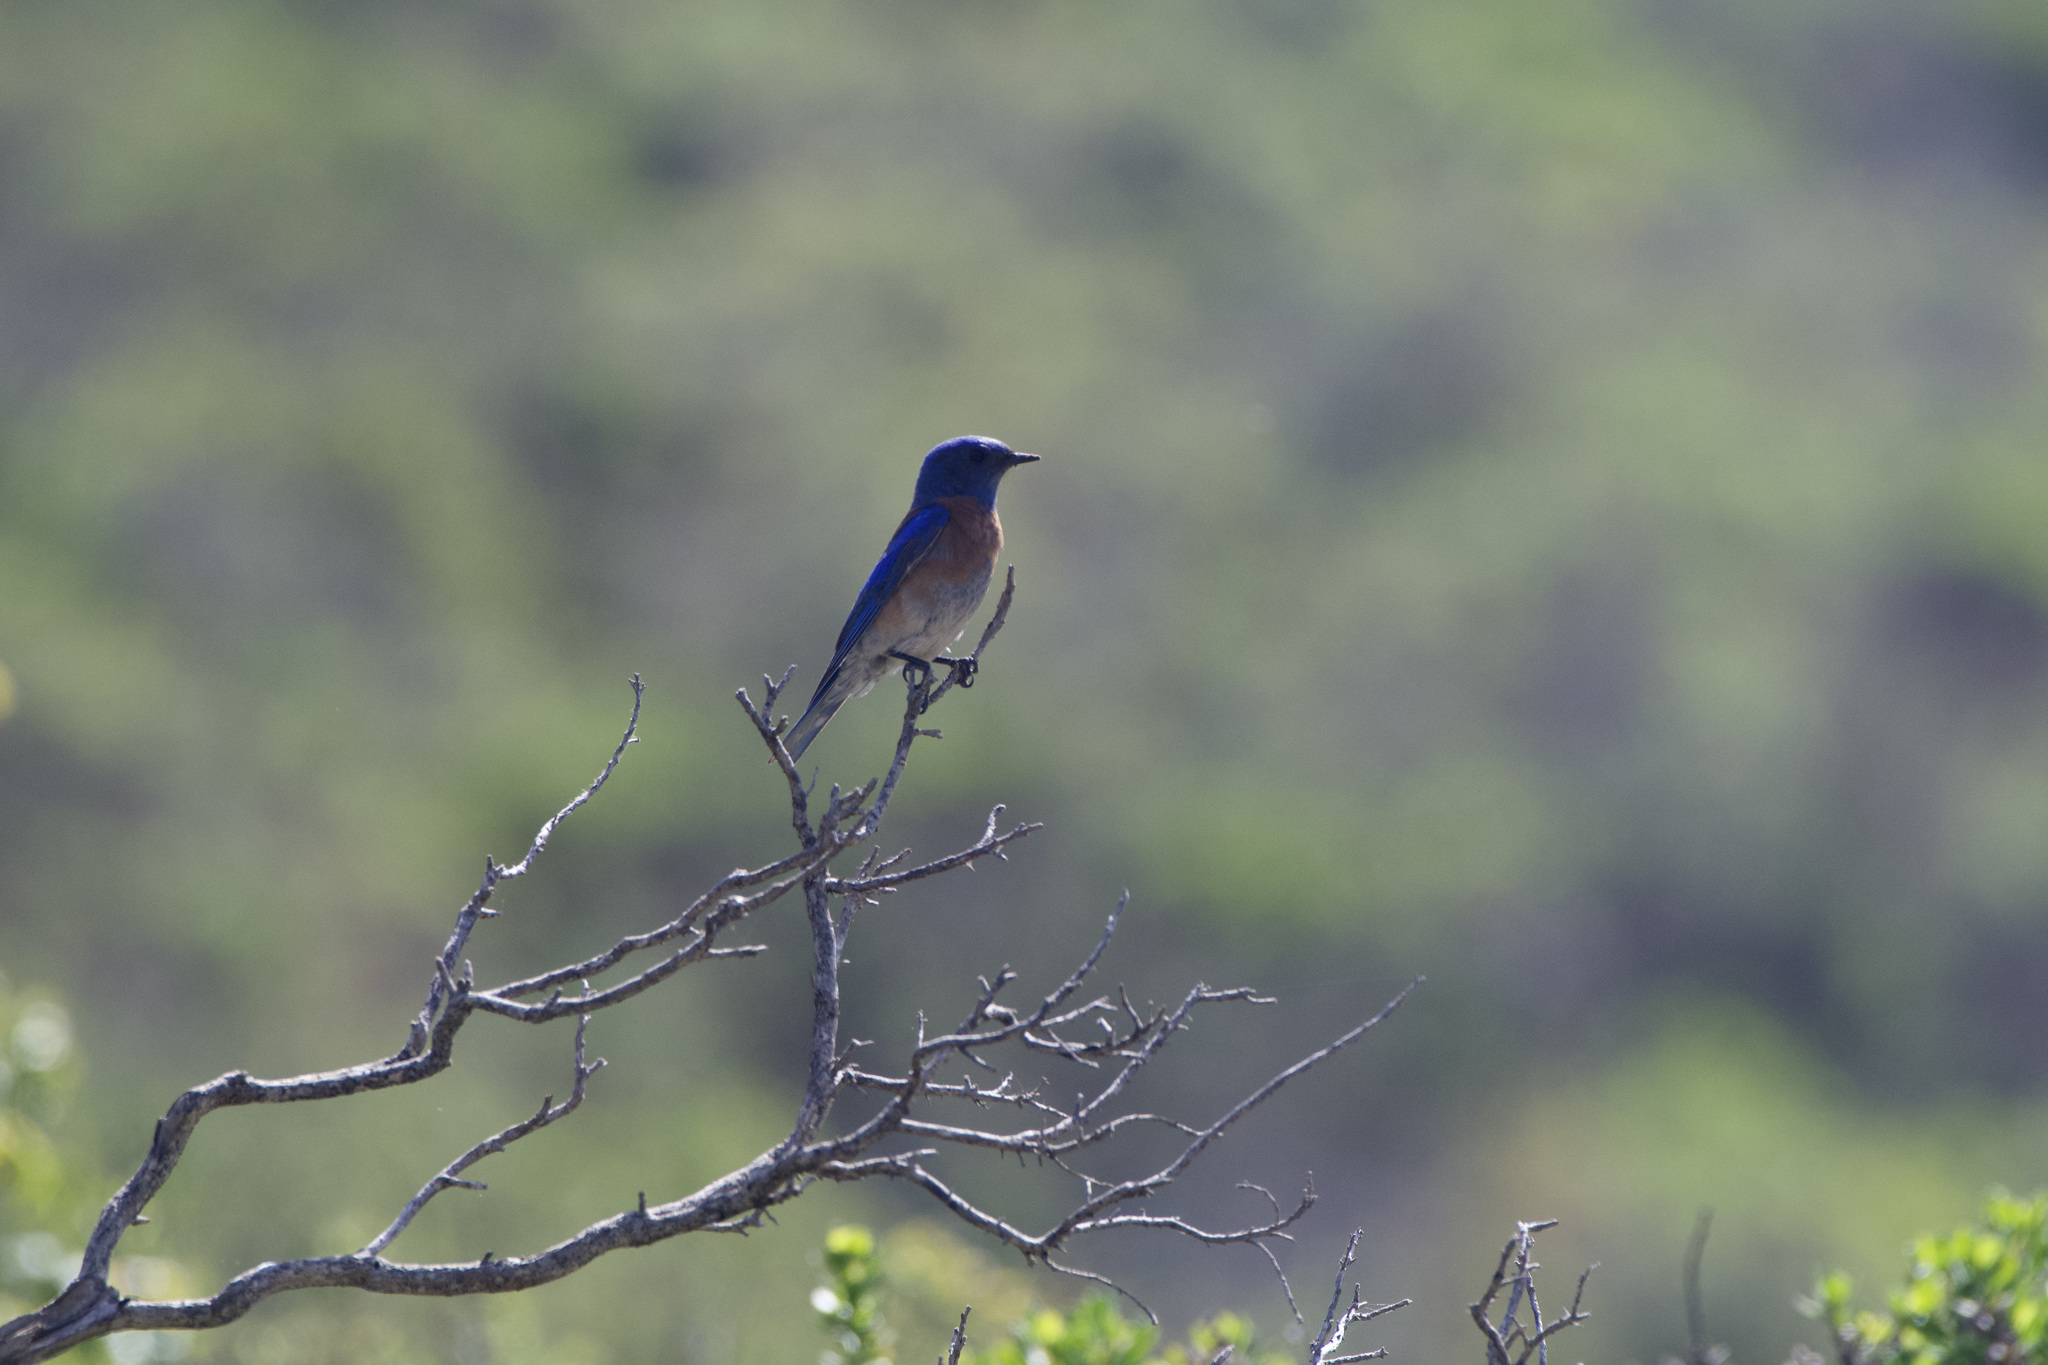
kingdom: Animalia
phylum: Chordata
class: Aves
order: Passeriformes
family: Turdidae
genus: Sialia
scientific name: Sialia mexicana
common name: Western bluebird
